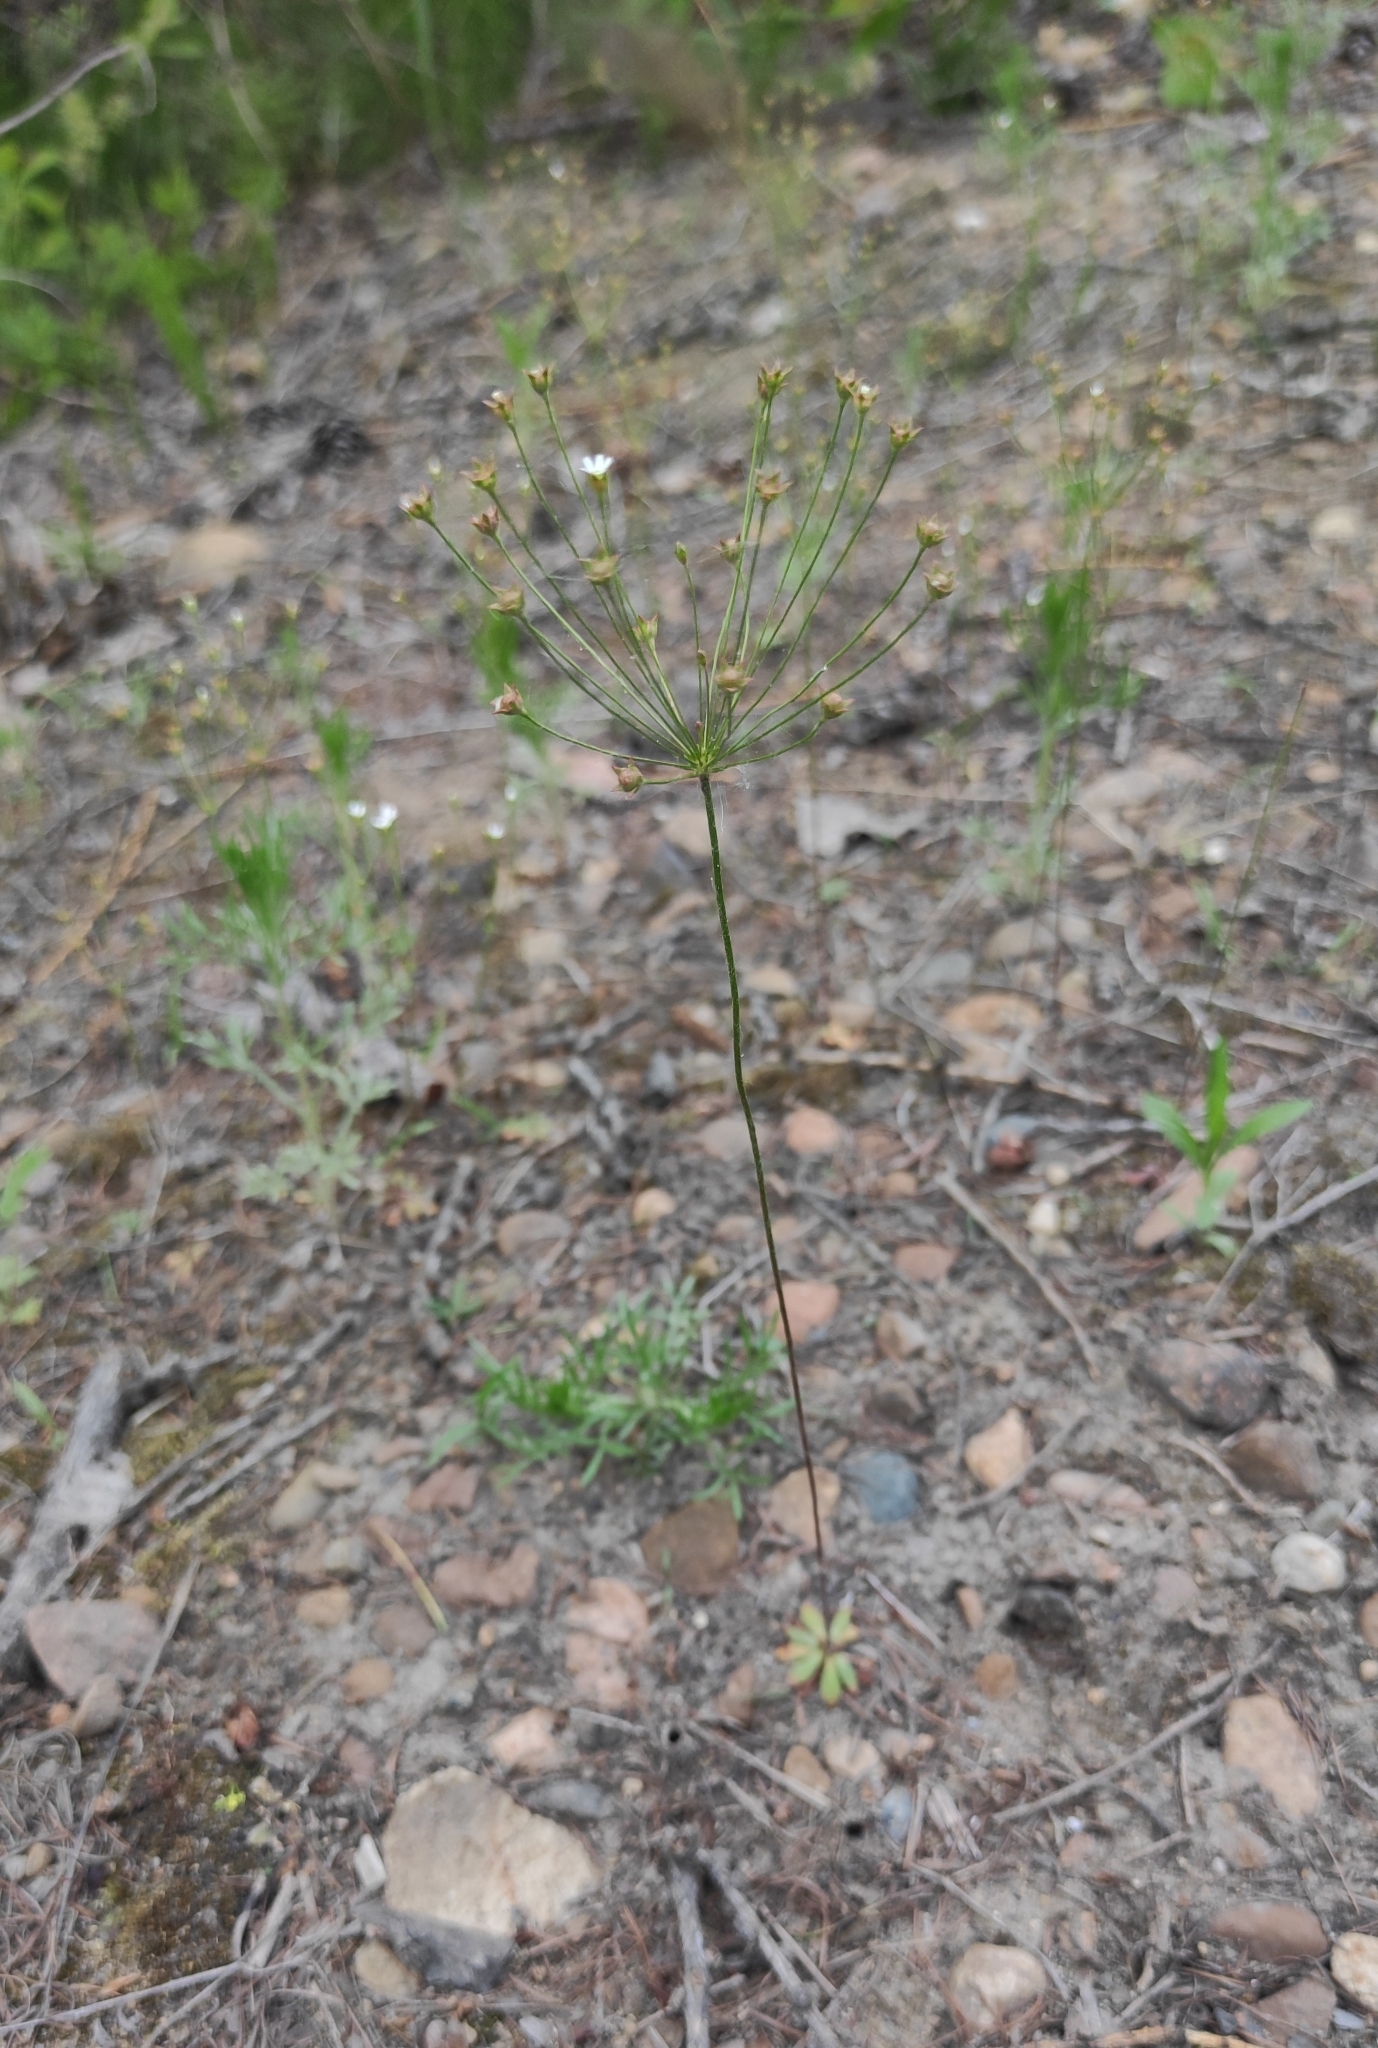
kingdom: Plantae
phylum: Tracheophyta
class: Magnoliopsida
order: Ericales
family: Primulaceae
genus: Androsace
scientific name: Androsace septentrionalis
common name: Hairy northern fairy-candelabra
